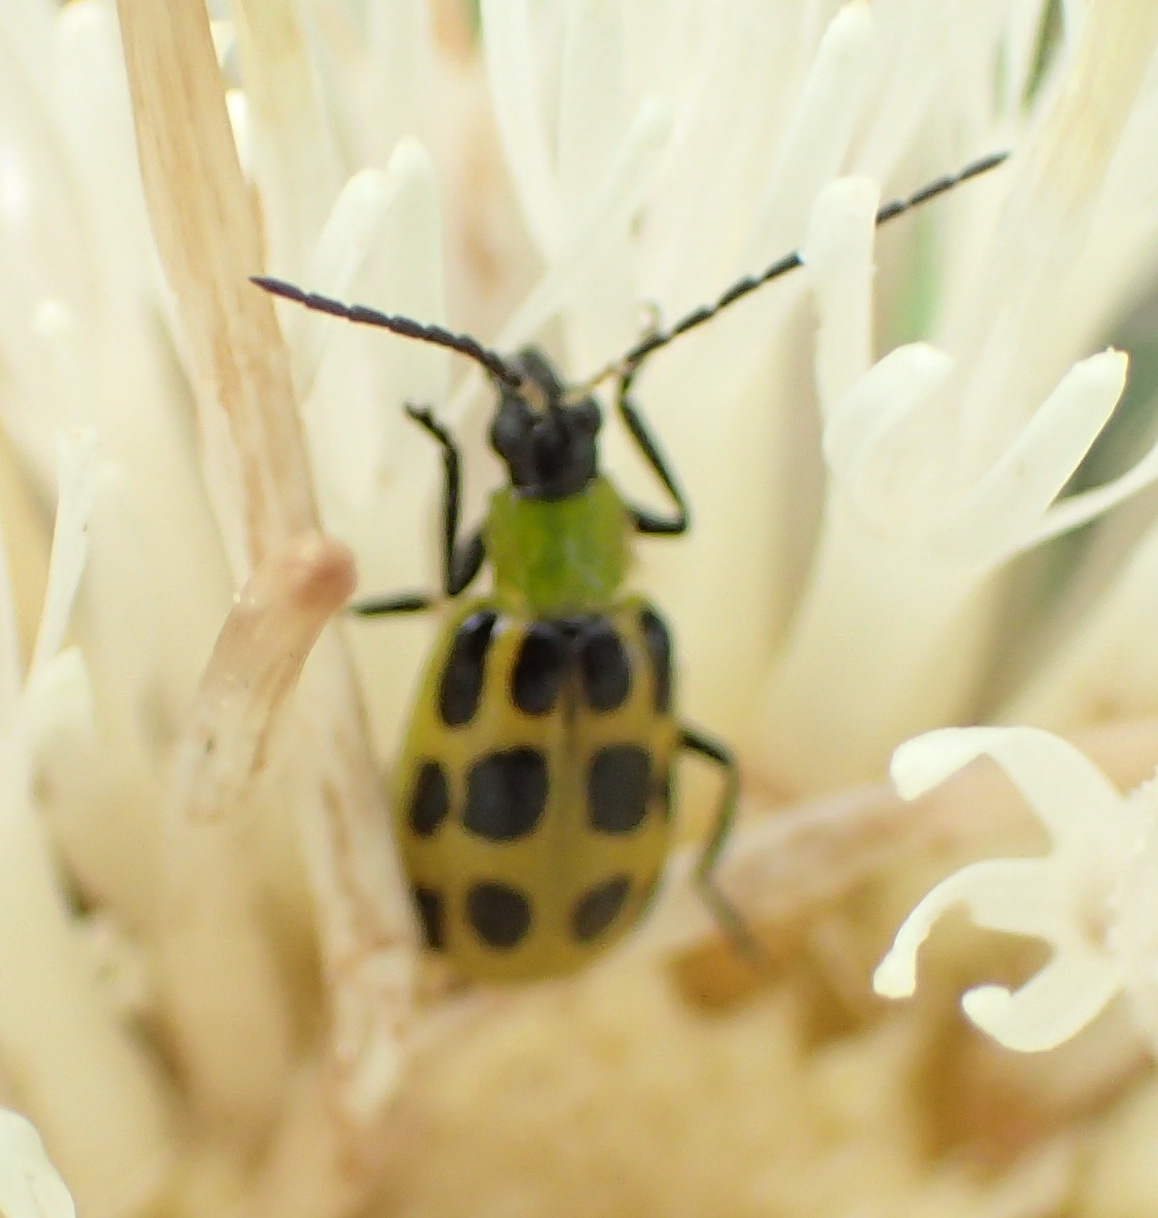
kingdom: Animalia
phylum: Arthropoda
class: Insecta
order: Coleoptera
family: Chrysomelidae
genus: Diabrotica
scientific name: Diabrotica undecimpunctata
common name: Spotted cucumber beetle
